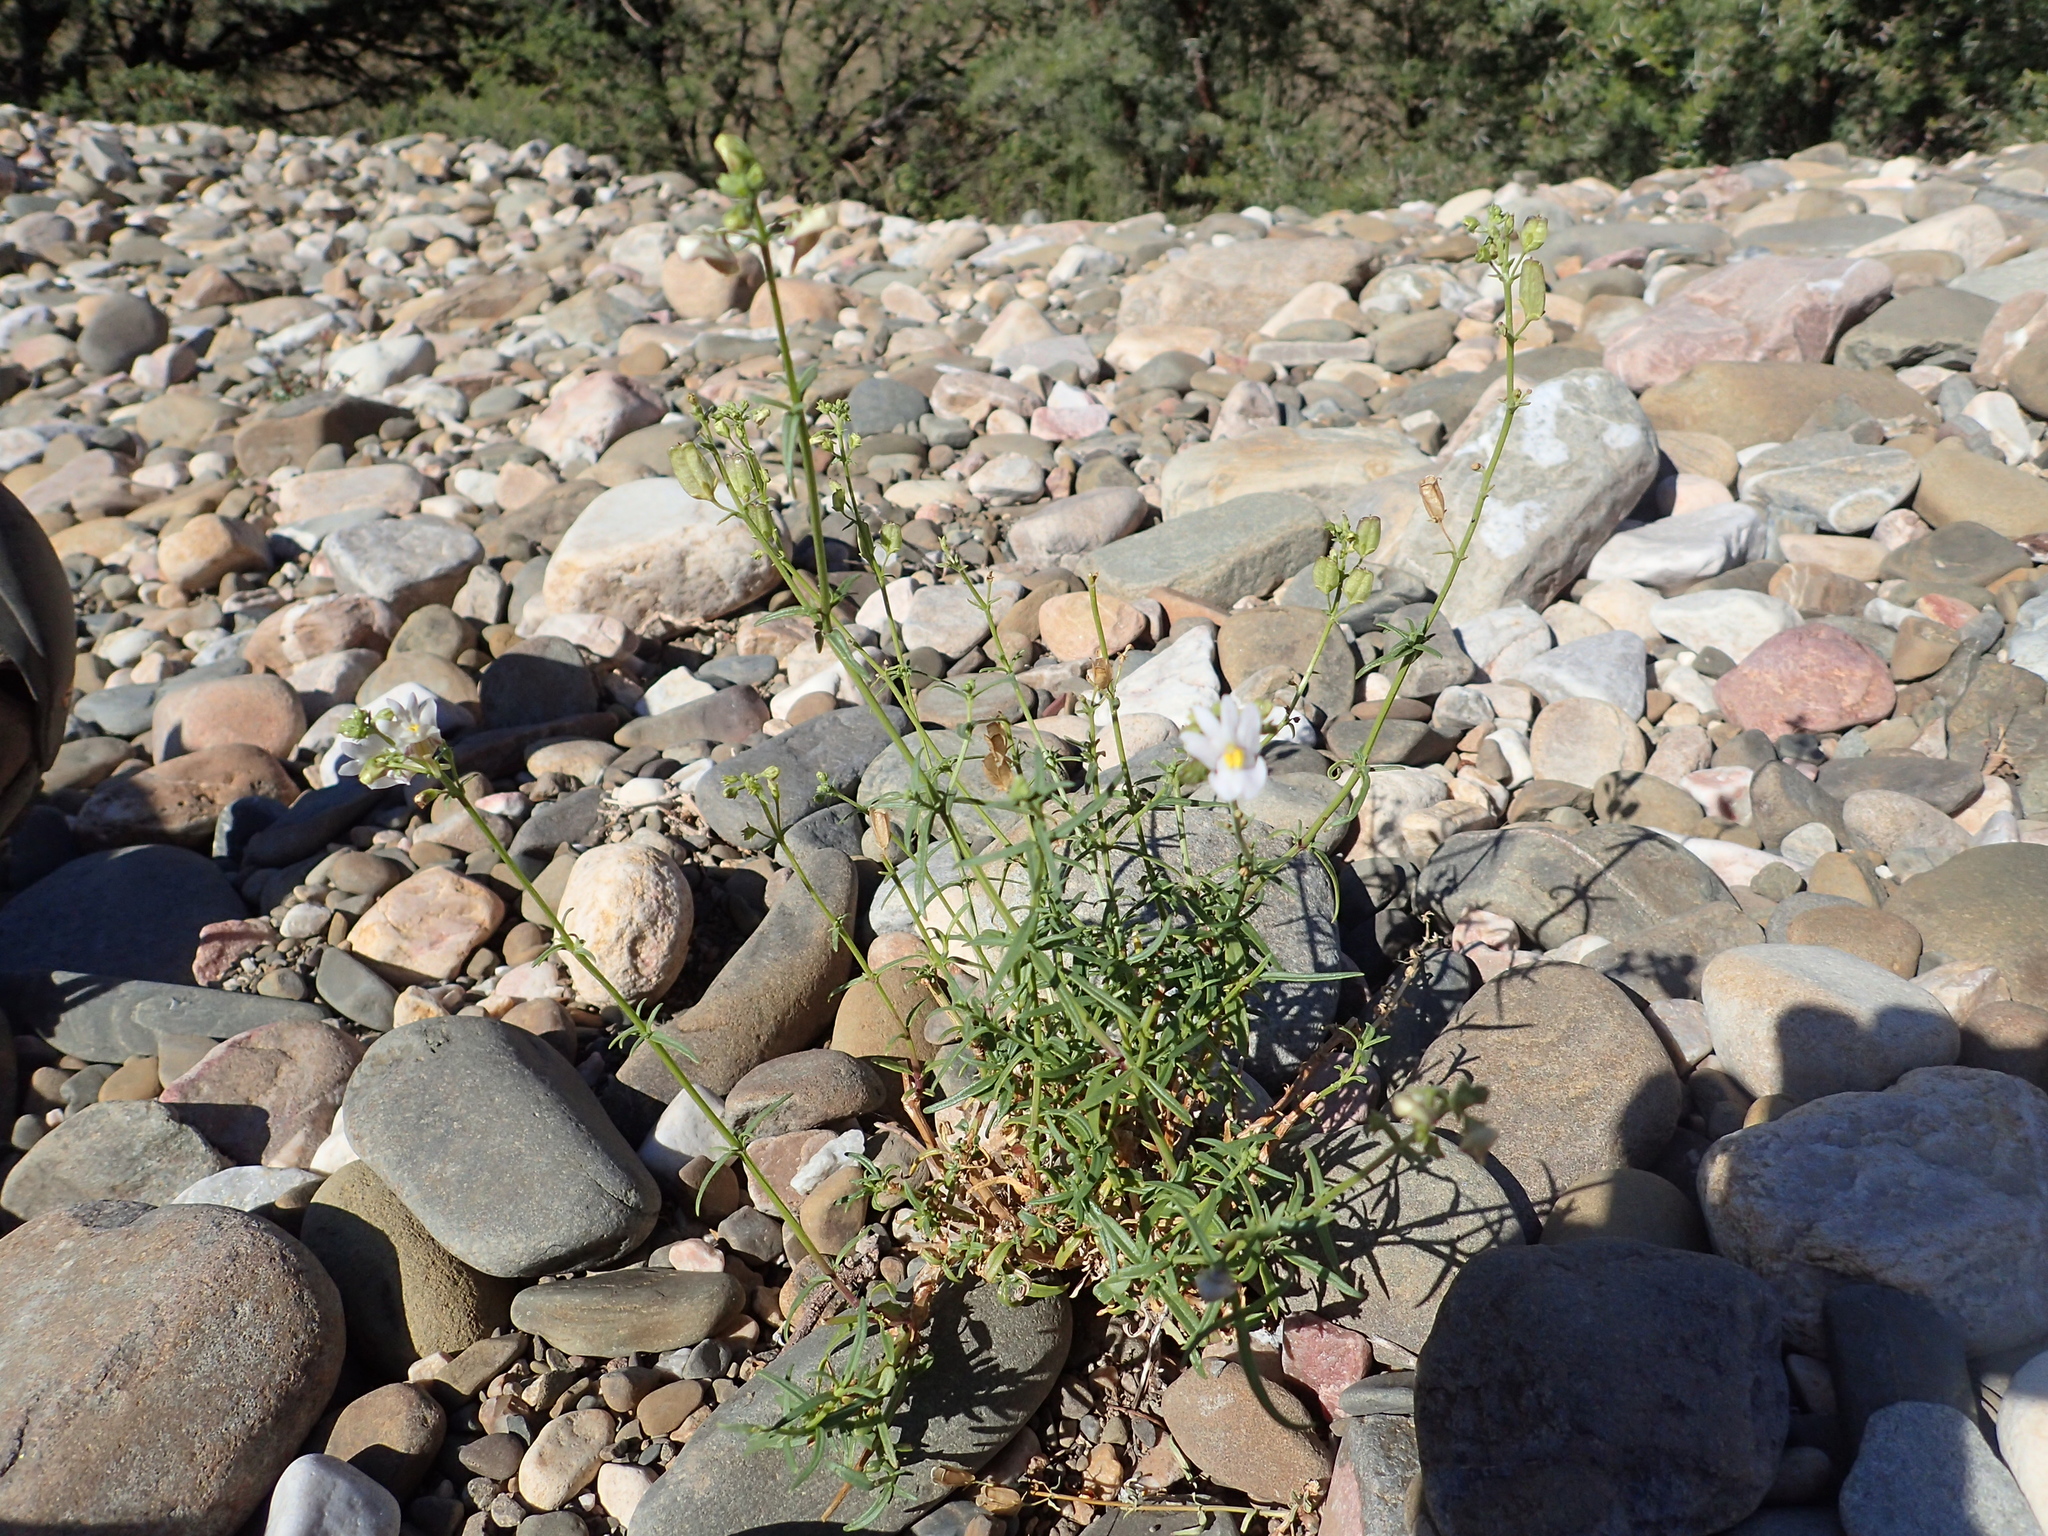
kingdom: Plantae
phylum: Tracheophyta
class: Magnoliopsida
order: Lamiales
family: Scrophulariaceae
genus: Nemesia
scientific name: Nemesia fruticans
